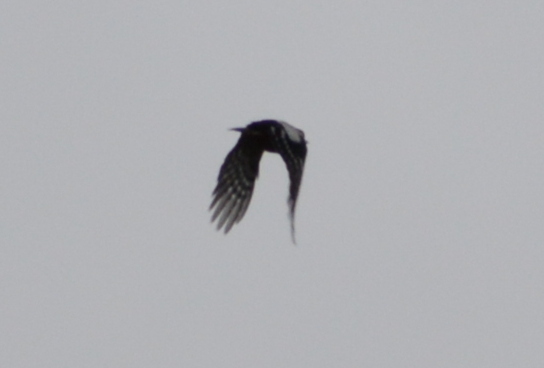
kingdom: Animalia
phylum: Chordata
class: Aves
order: Piciformes
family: Picidae
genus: Dendrocopos
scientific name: Dendrocopos major
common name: Great spotted woodpecker
